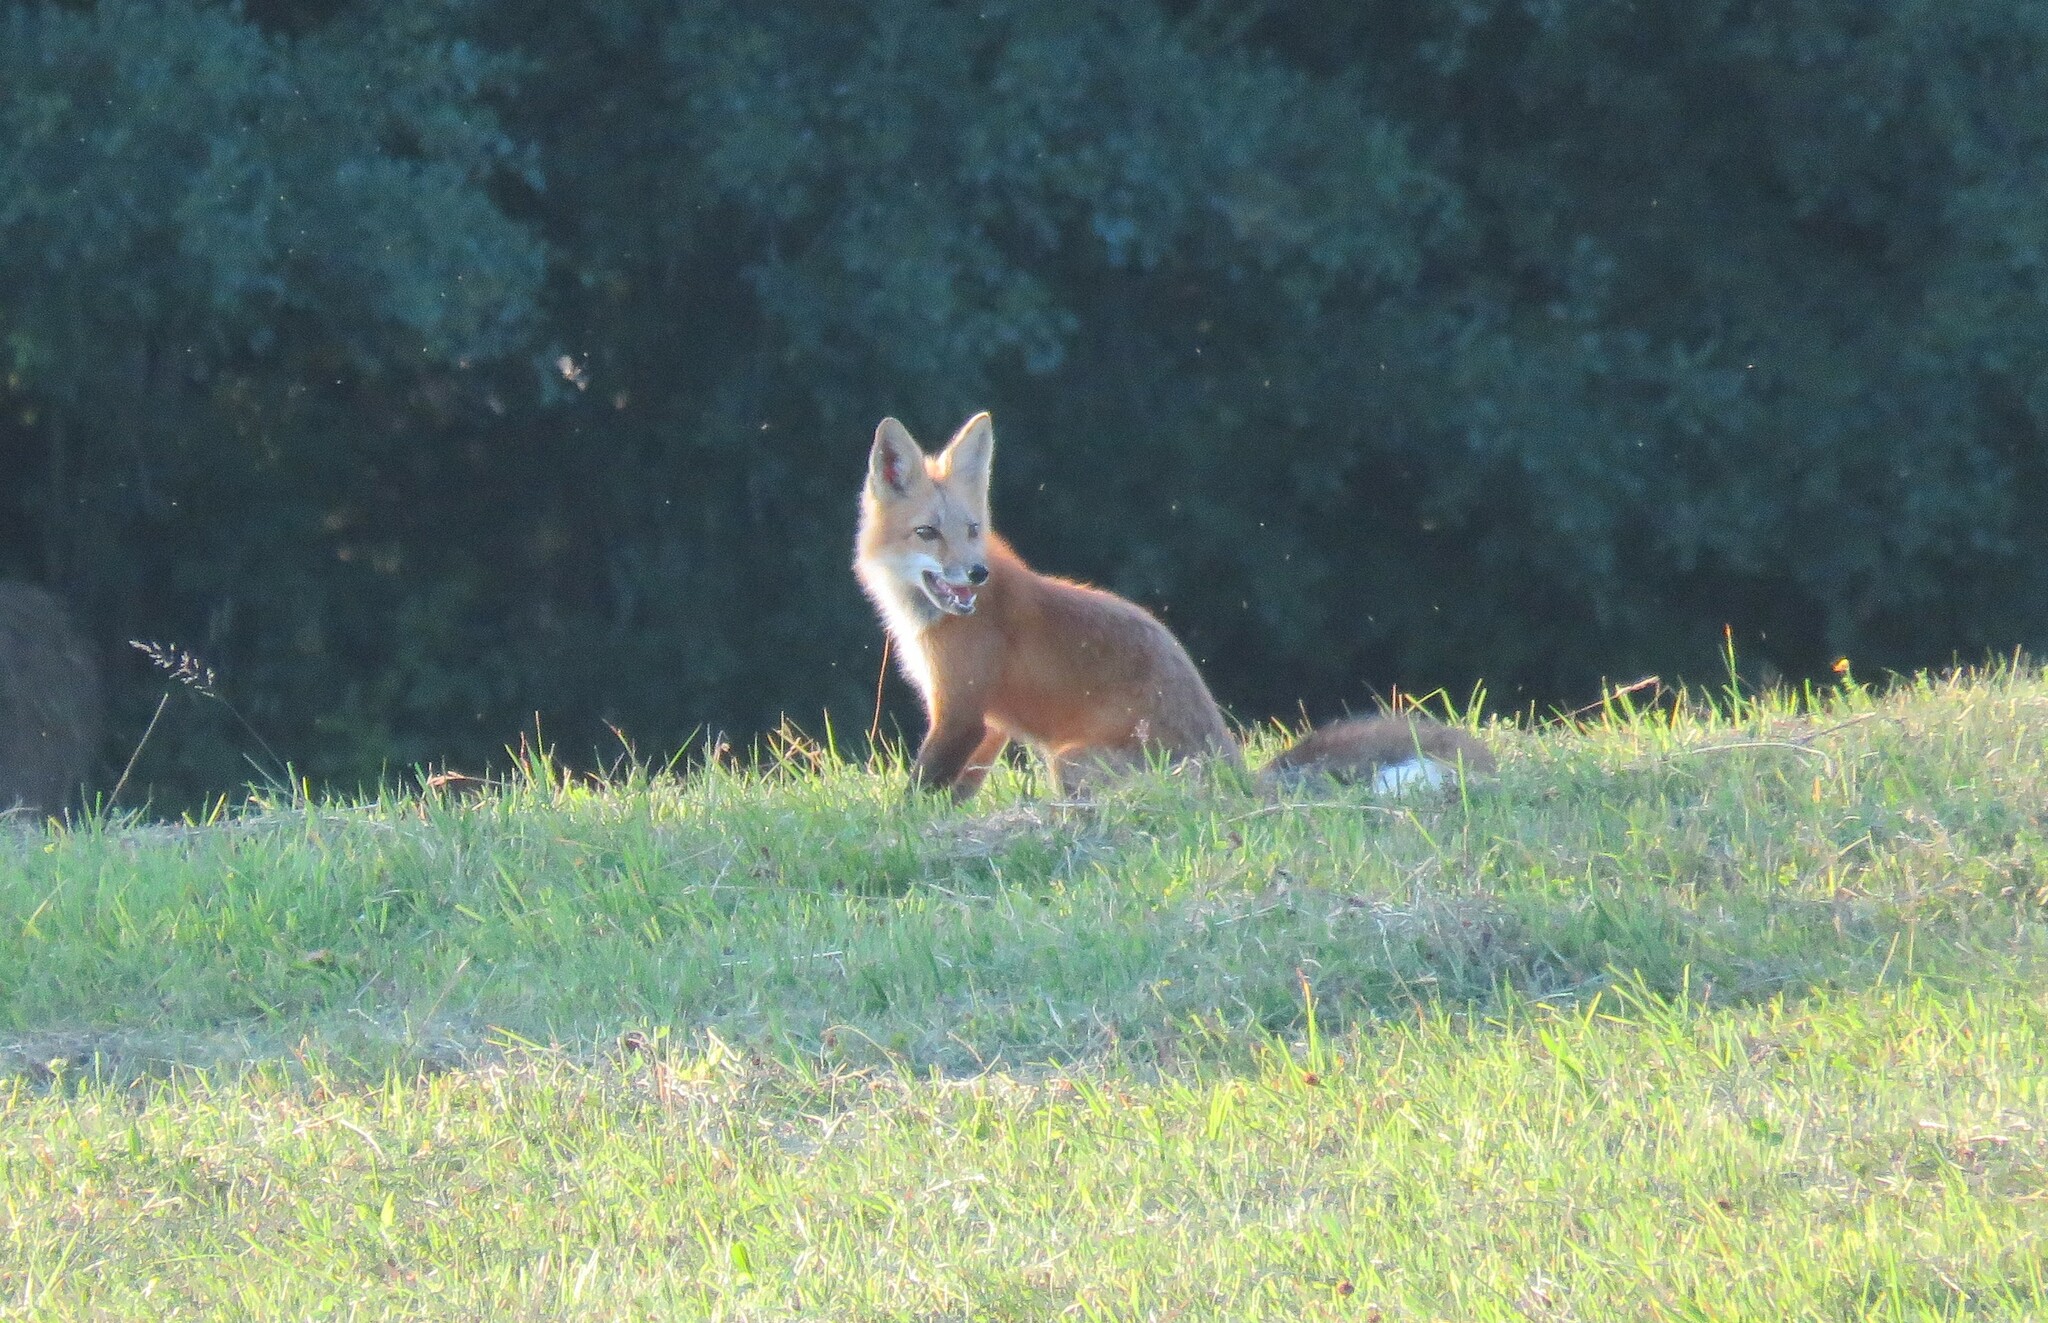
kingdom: Animalia
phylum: Chordata
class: Mammalia
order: Carnivora
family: Canidae
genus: Vulpes
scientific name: Vulpes vulpes
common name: Red fox
